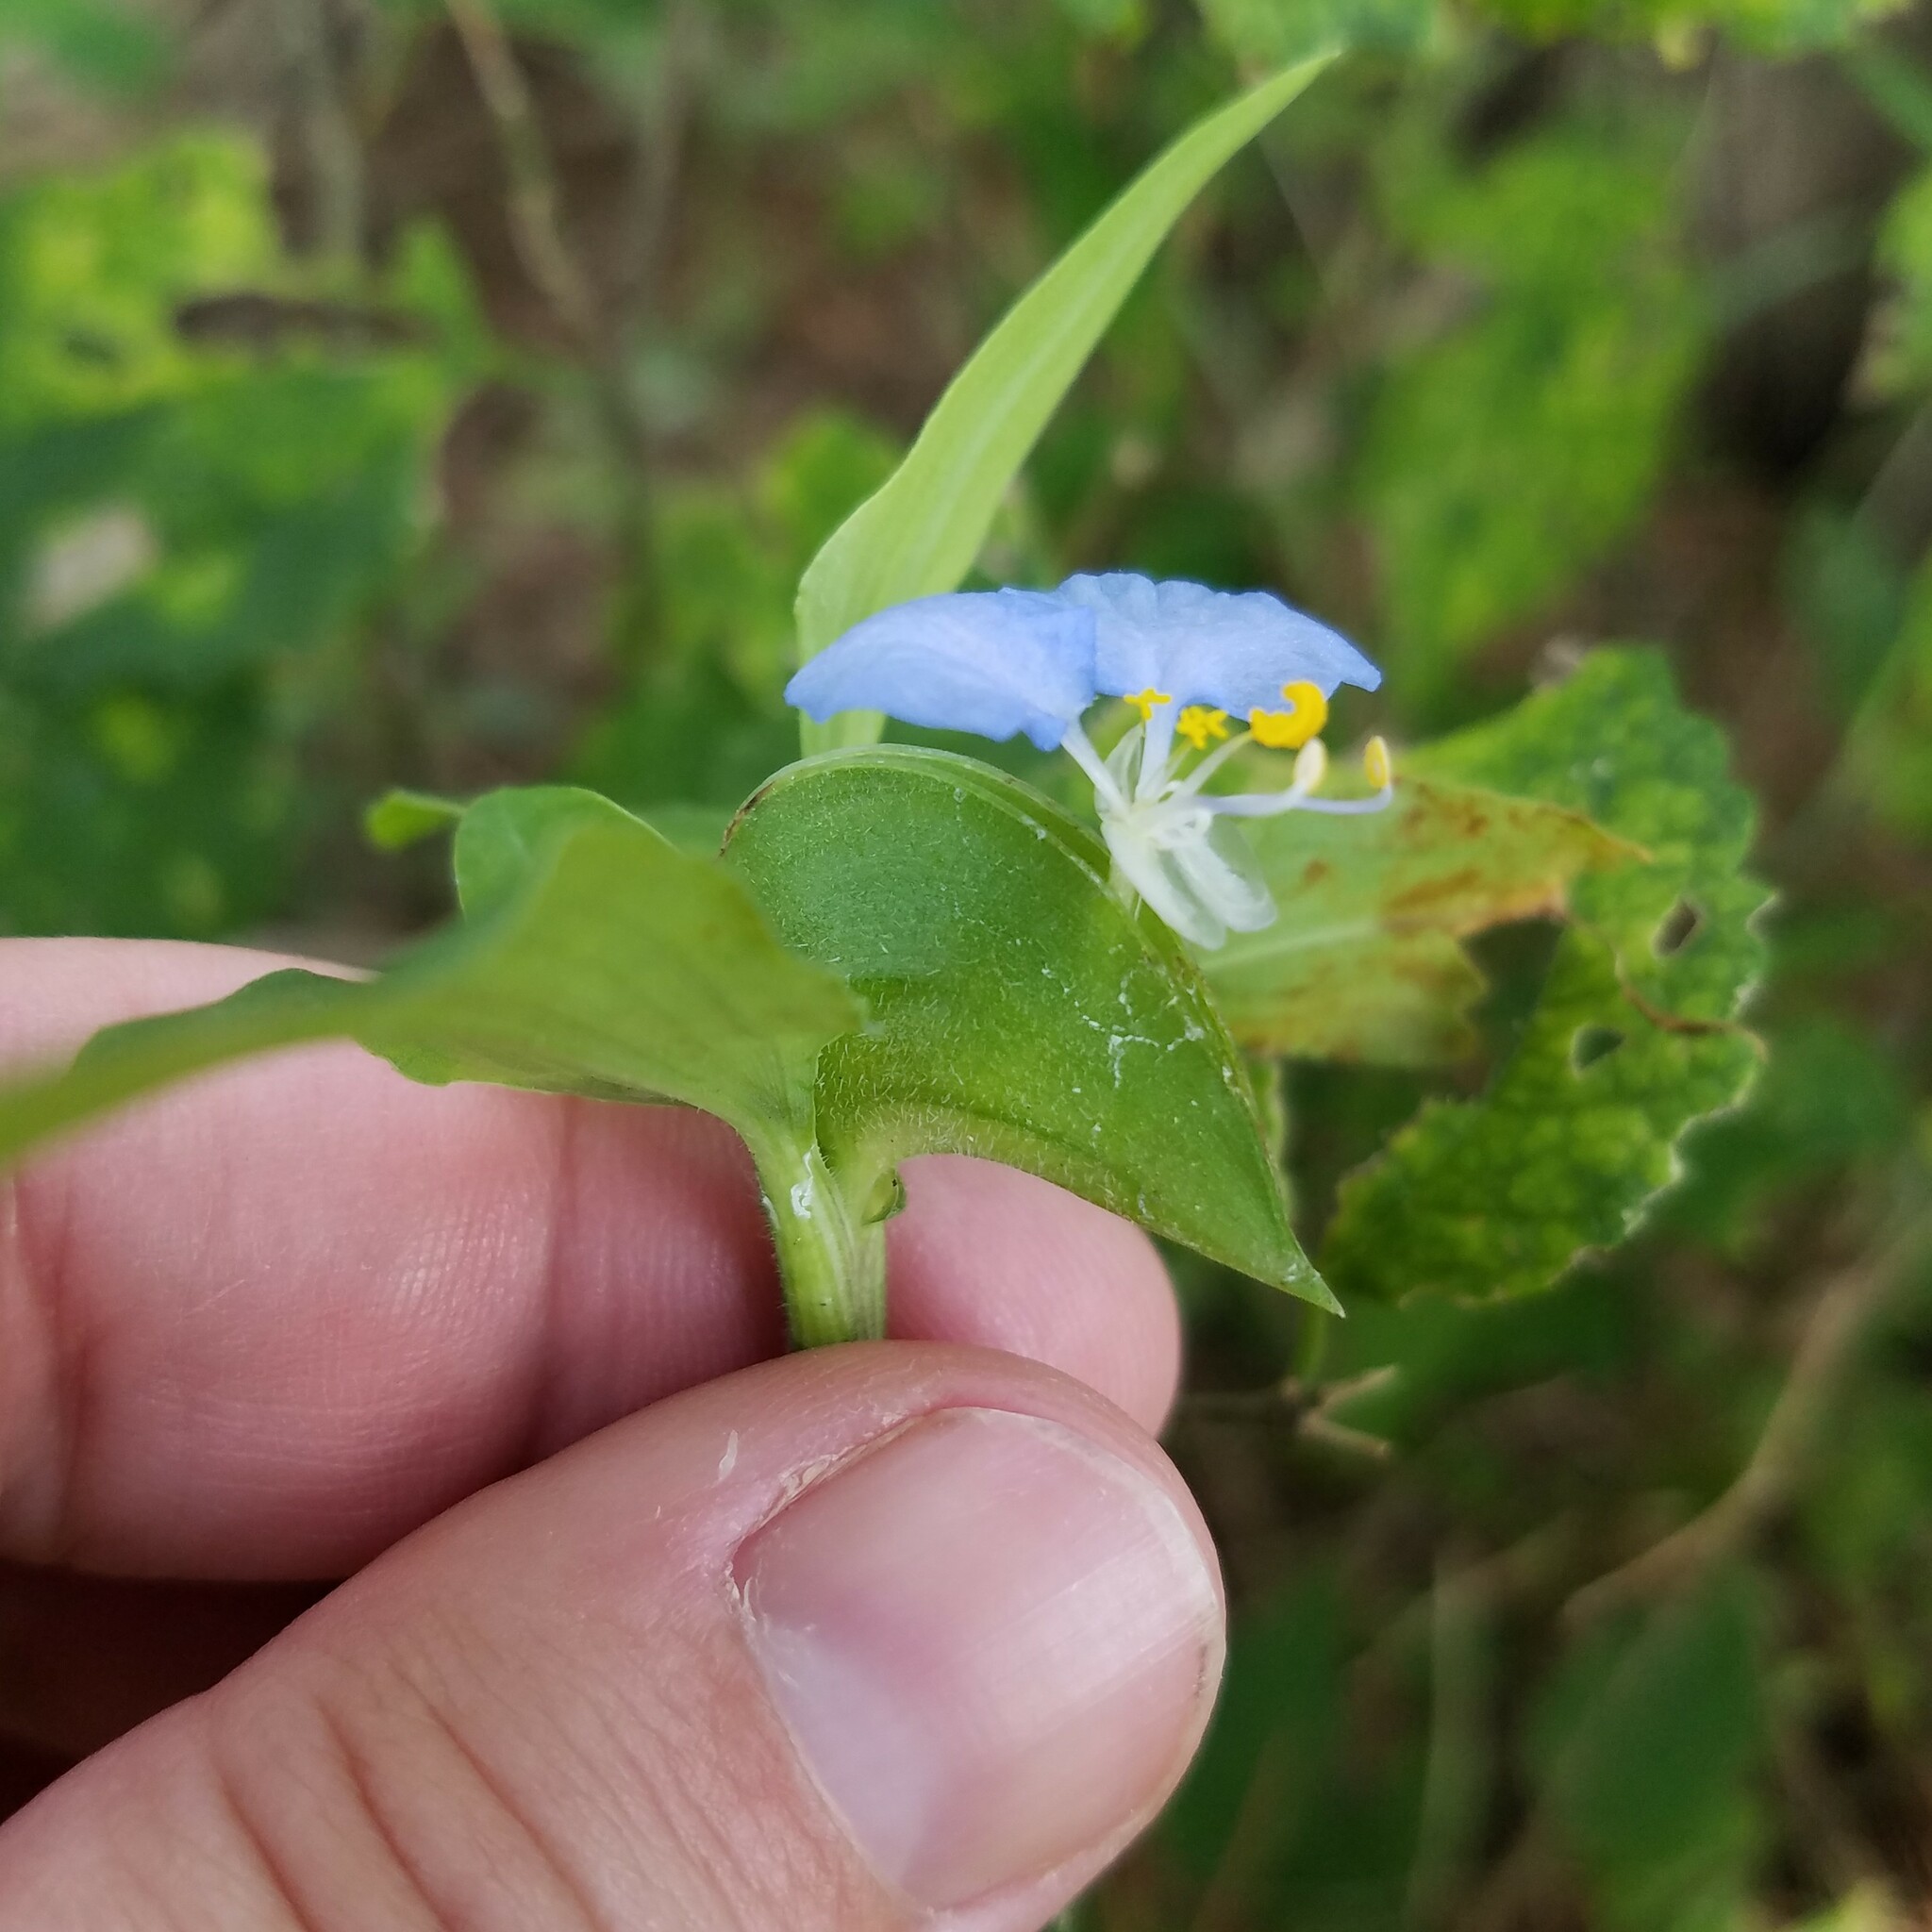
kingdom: Plantae
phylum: Tracheophyta
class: Liliopsida
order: Commelinales
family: Commelinaceae
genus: Commelina
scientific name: Commelina erecta
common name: Blousel blommetjie
